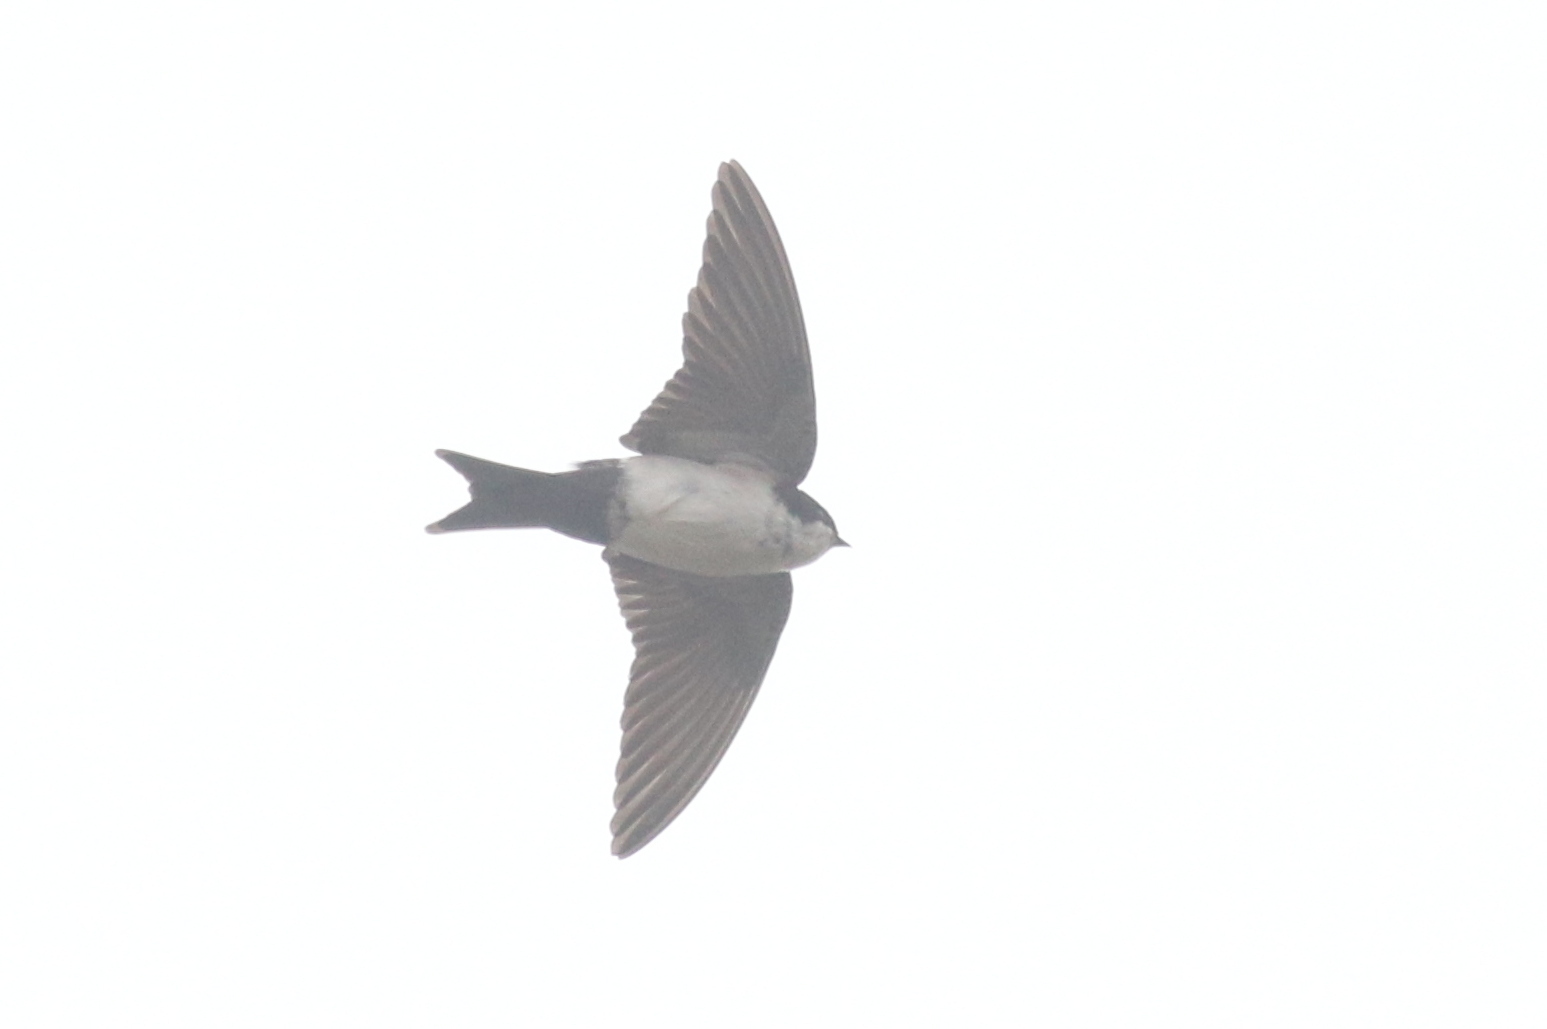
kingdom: Animalia
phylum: Chordata
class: Aves
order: Passeriformes
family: Hirundinidae
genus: Notiochelidon
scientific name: Notiochelidon cyanoleuca
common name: Blue-and-white swallow
